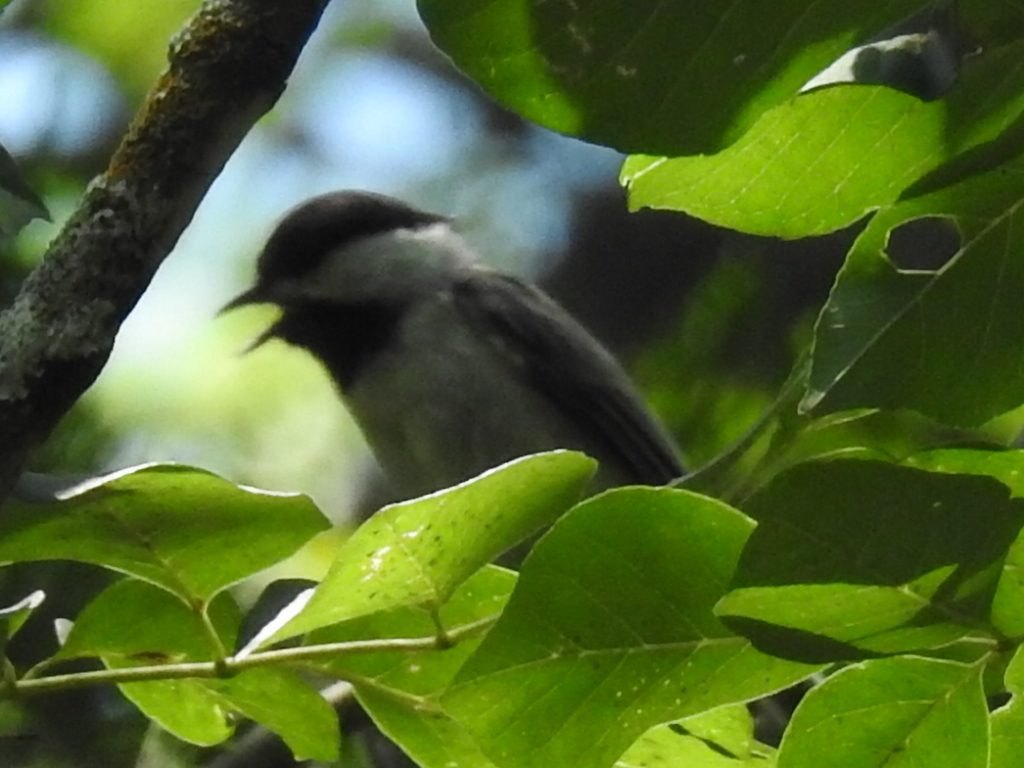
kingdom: Animalia
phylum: Chordata
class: Aves
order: Passeriformes
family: Paridae
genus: Poecile
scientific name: Poecile carolinensis
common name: Carolina chickadee
